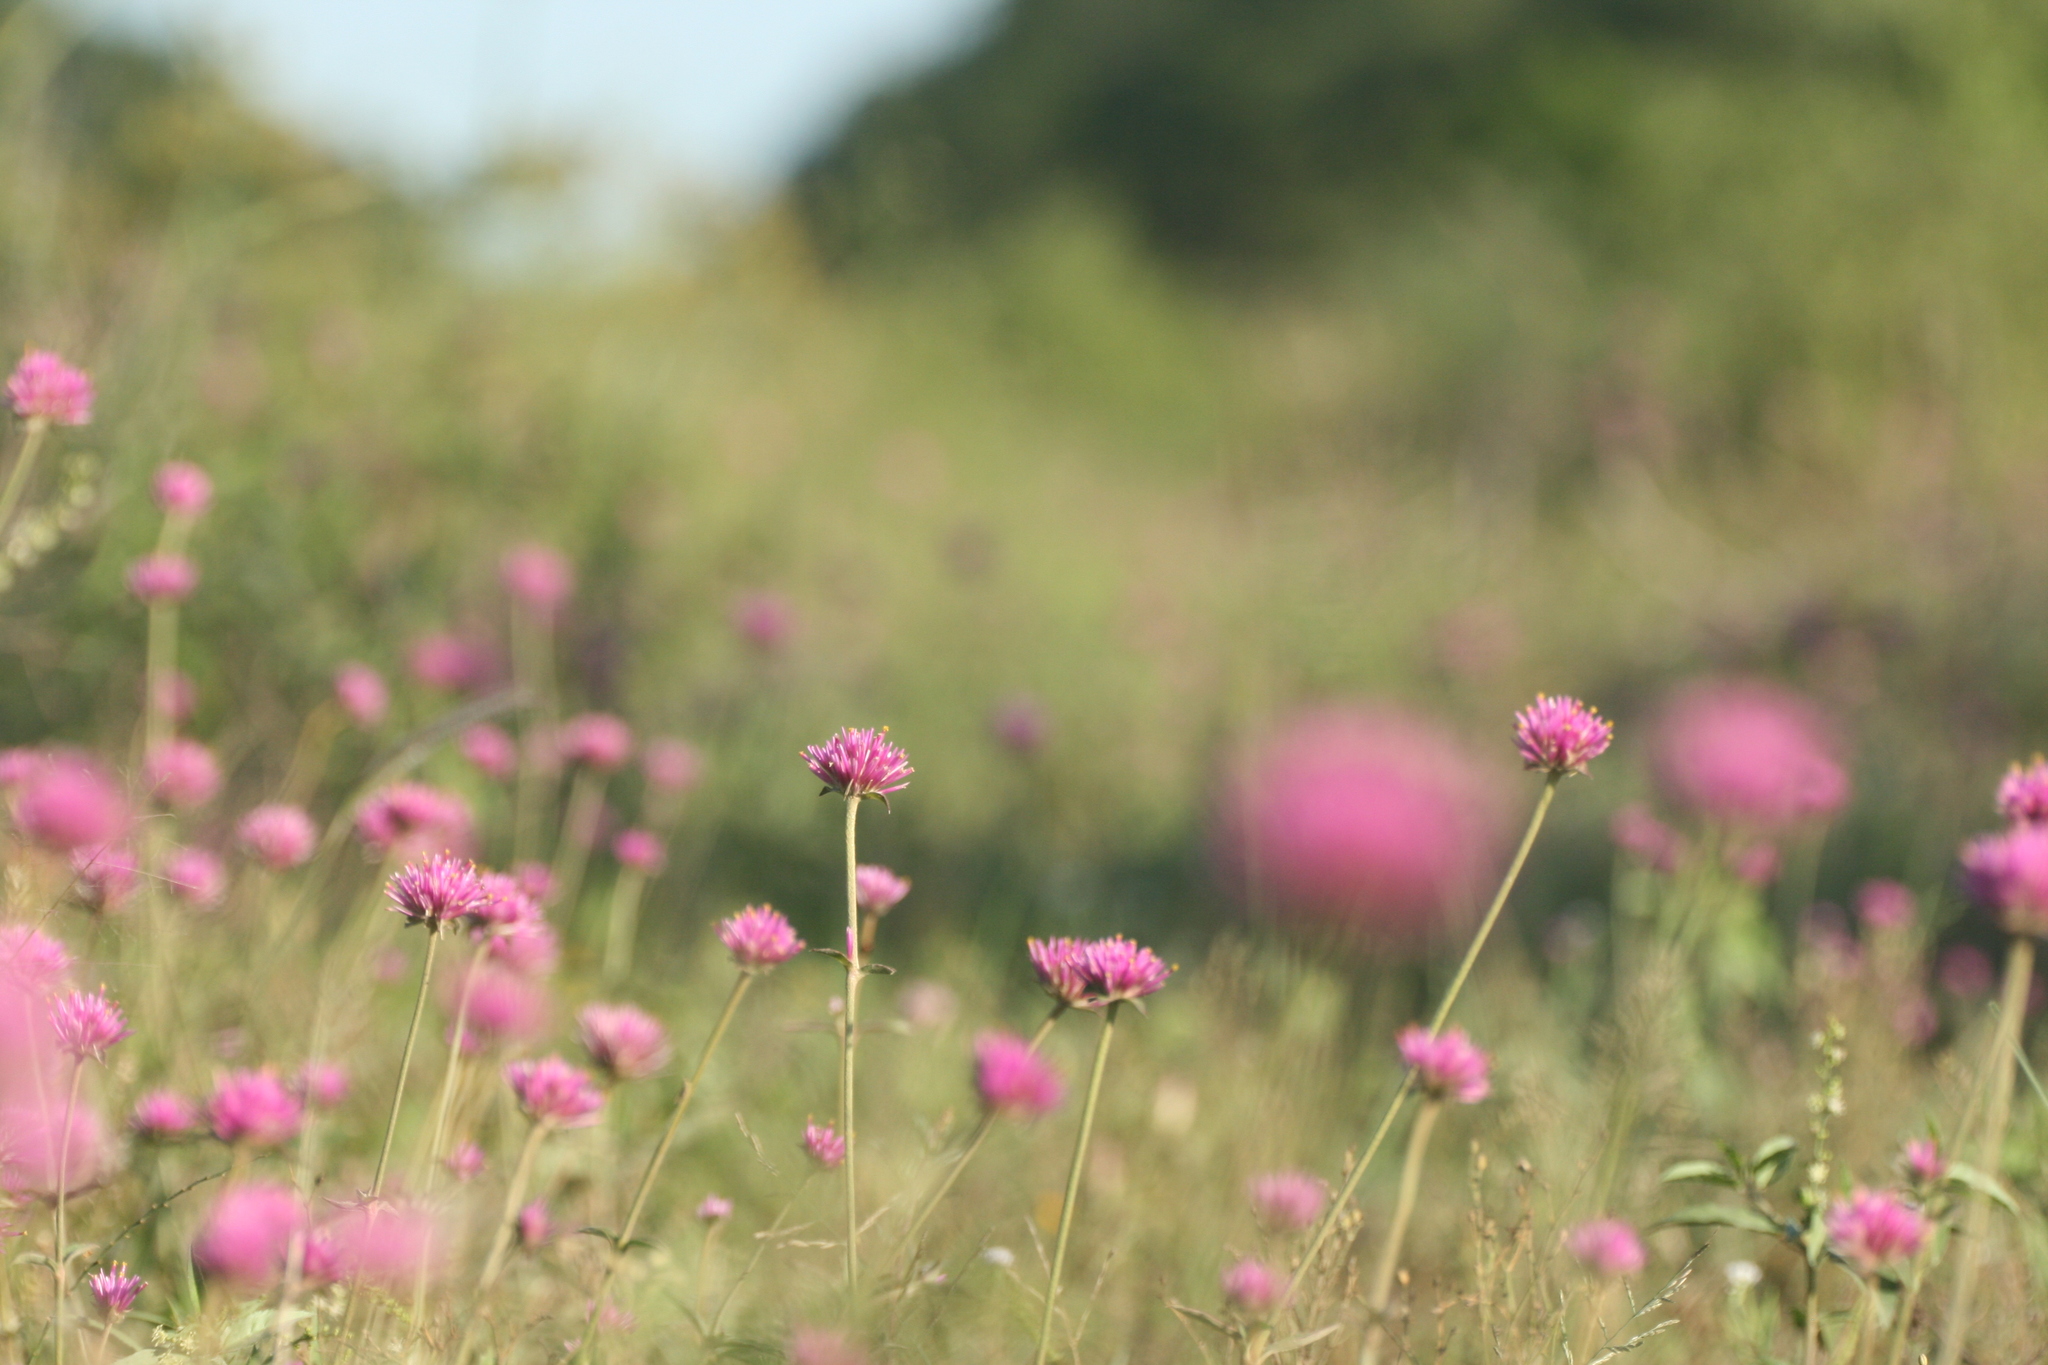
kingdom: Plantae
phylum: Tracheophyta
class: Magnoliopsida
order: Caryophyllales
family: Amaranthaceae
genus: Gomphrena
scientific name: Gomphrena pulchella
